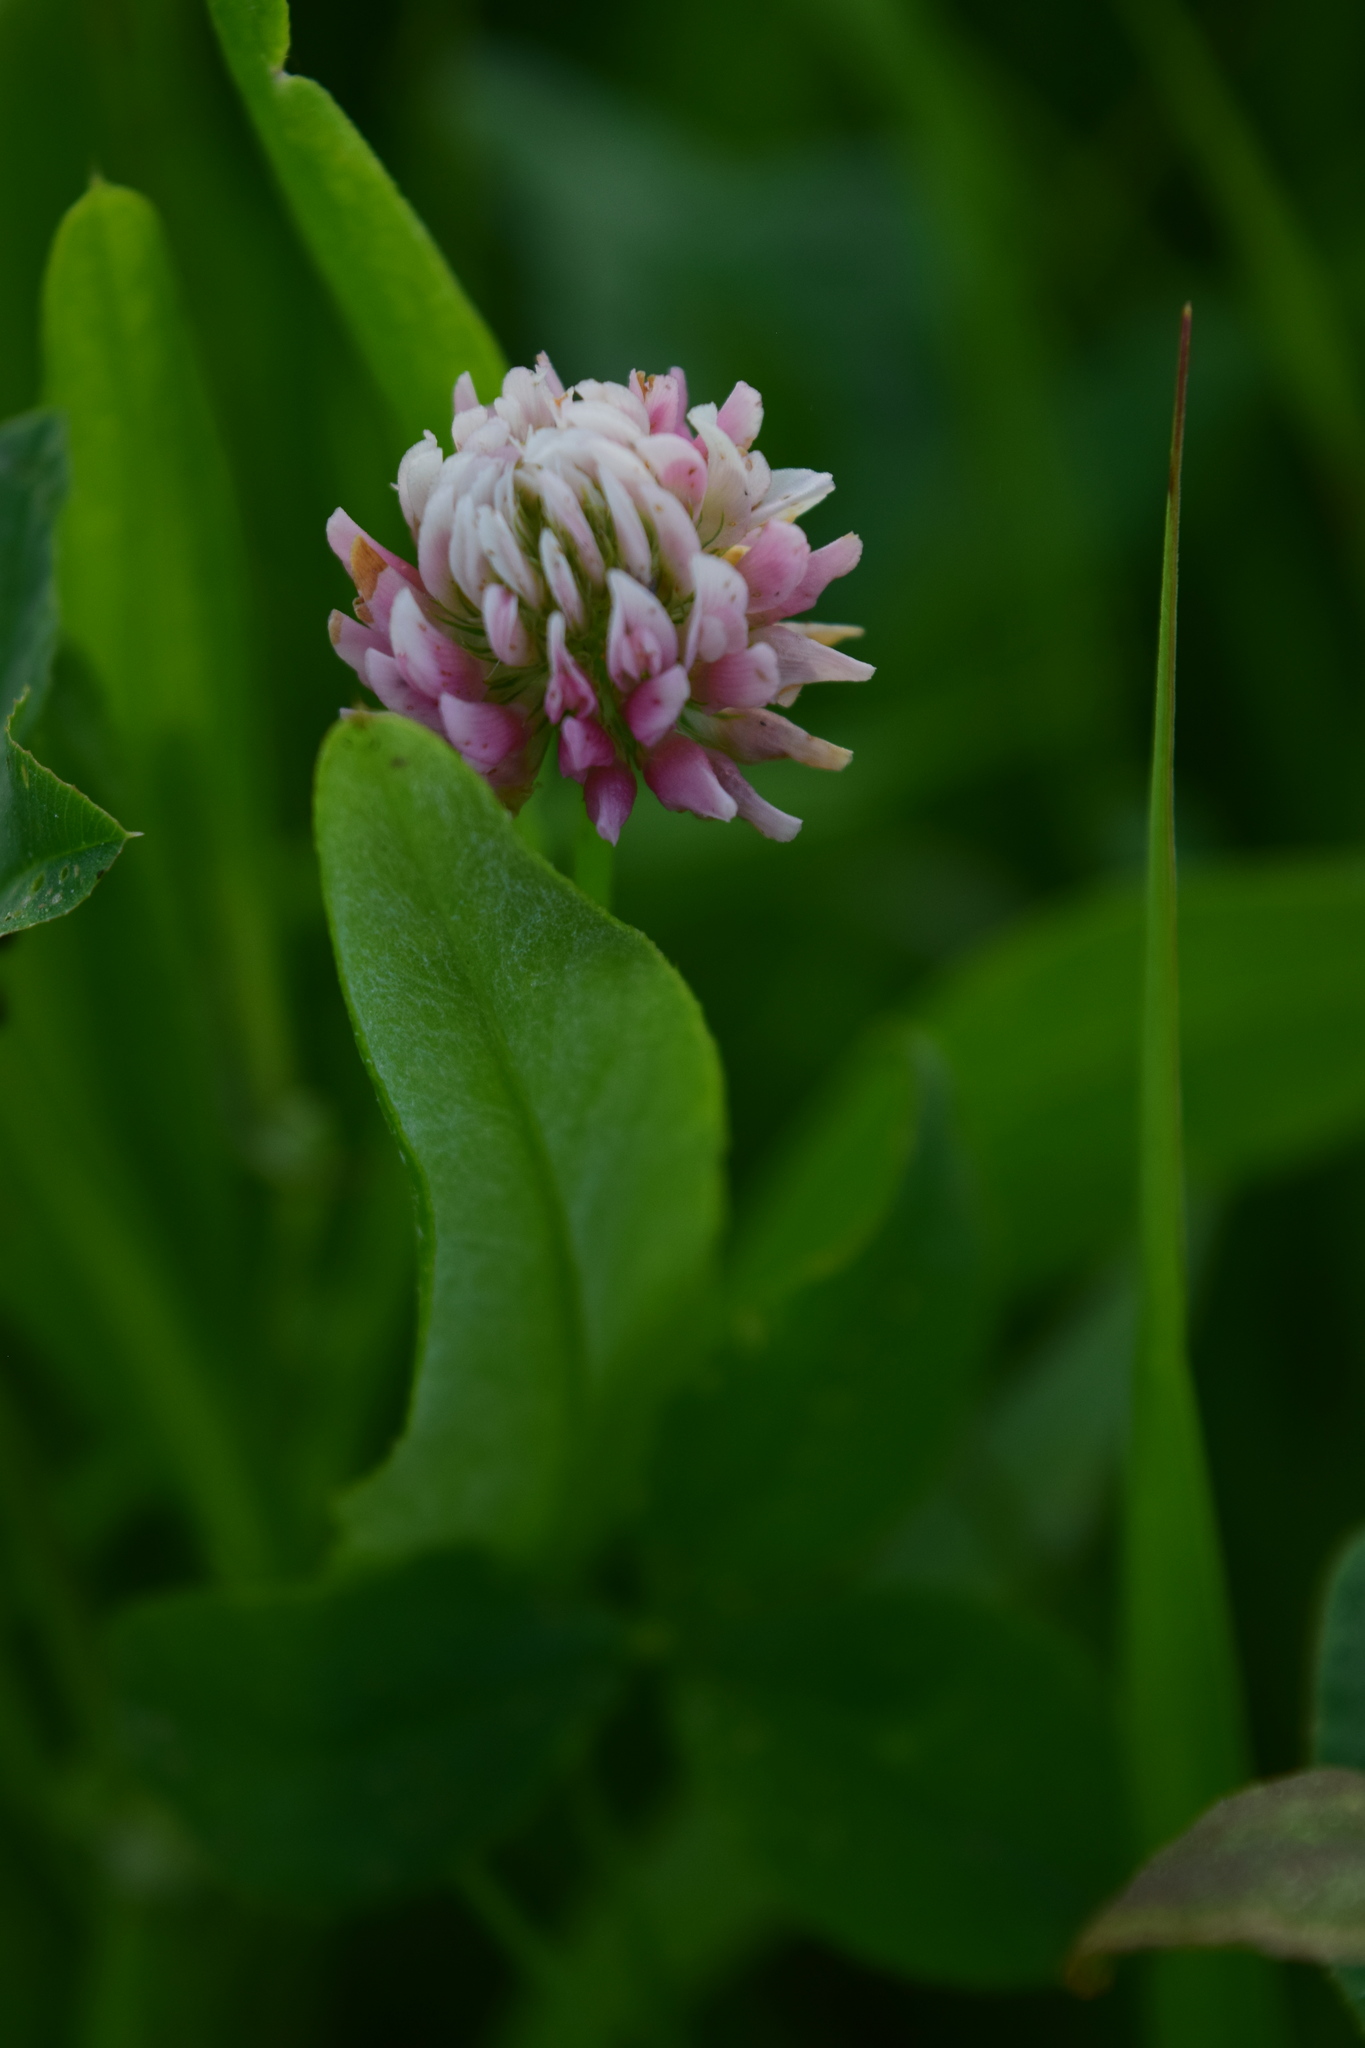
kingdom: Plantae
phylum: Tracheophyta
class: Magnoliopsida
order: Fabales
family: Fabaceae
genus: Trifolium
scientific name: Trifolium hybridum
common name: Alsike clover
